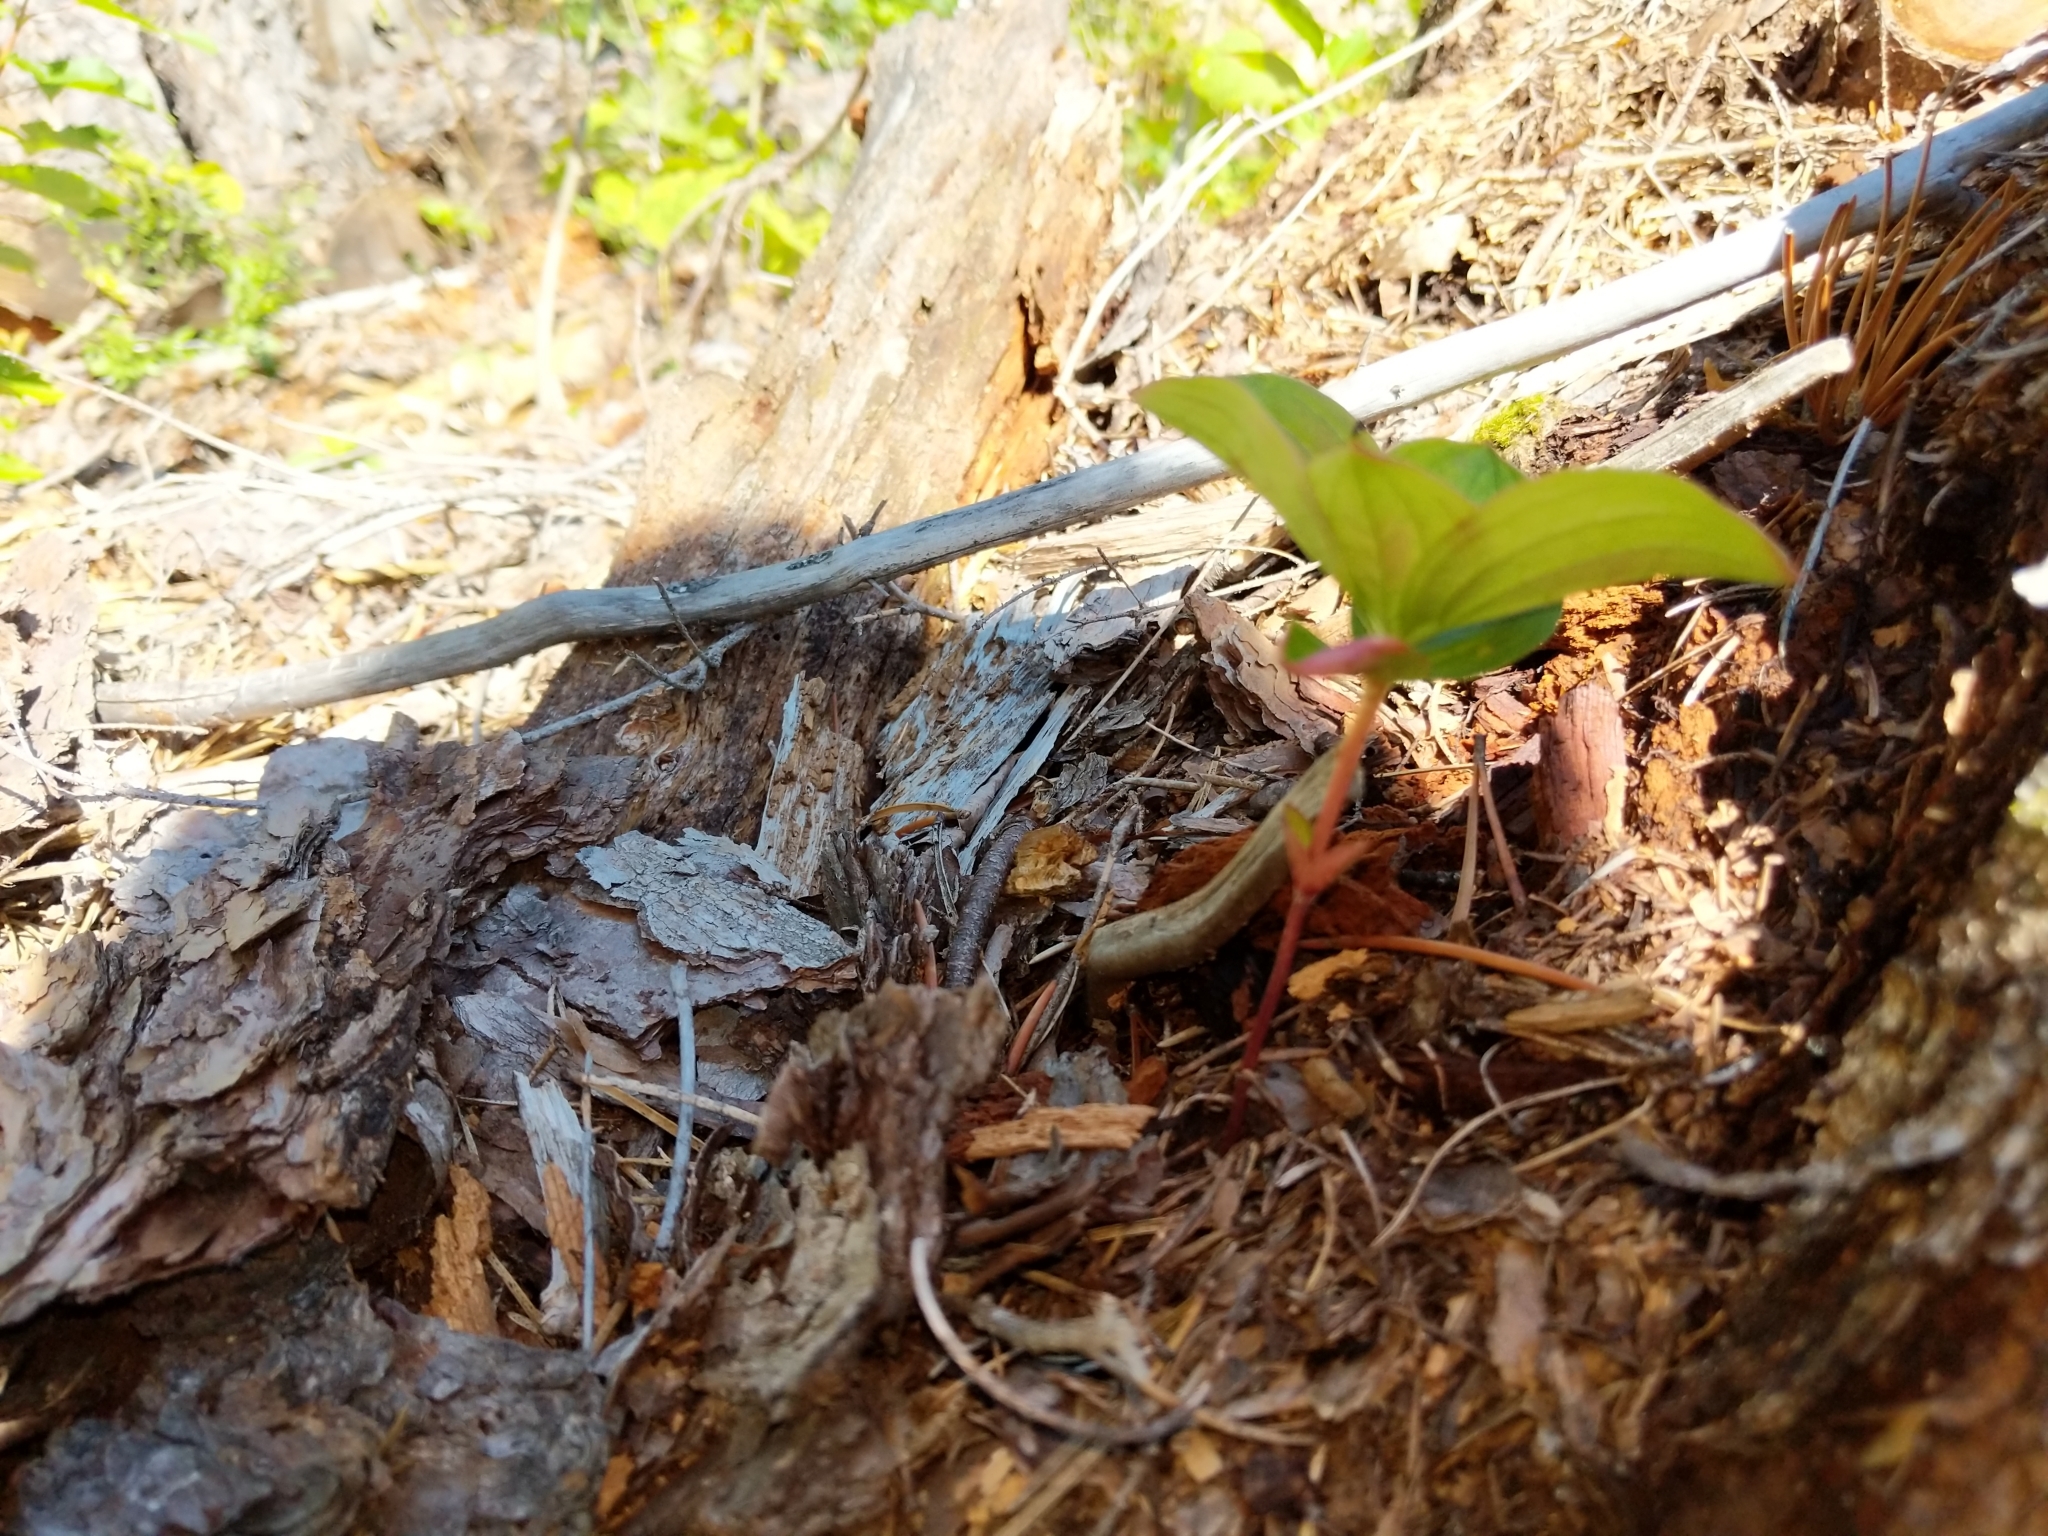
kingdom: Plantae
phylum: Tracheophyta
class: Magnoliopsida
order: Cornales
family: Cornaceae
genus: Cornus
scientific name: Cornus canadensis
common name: Creeping dogwood
